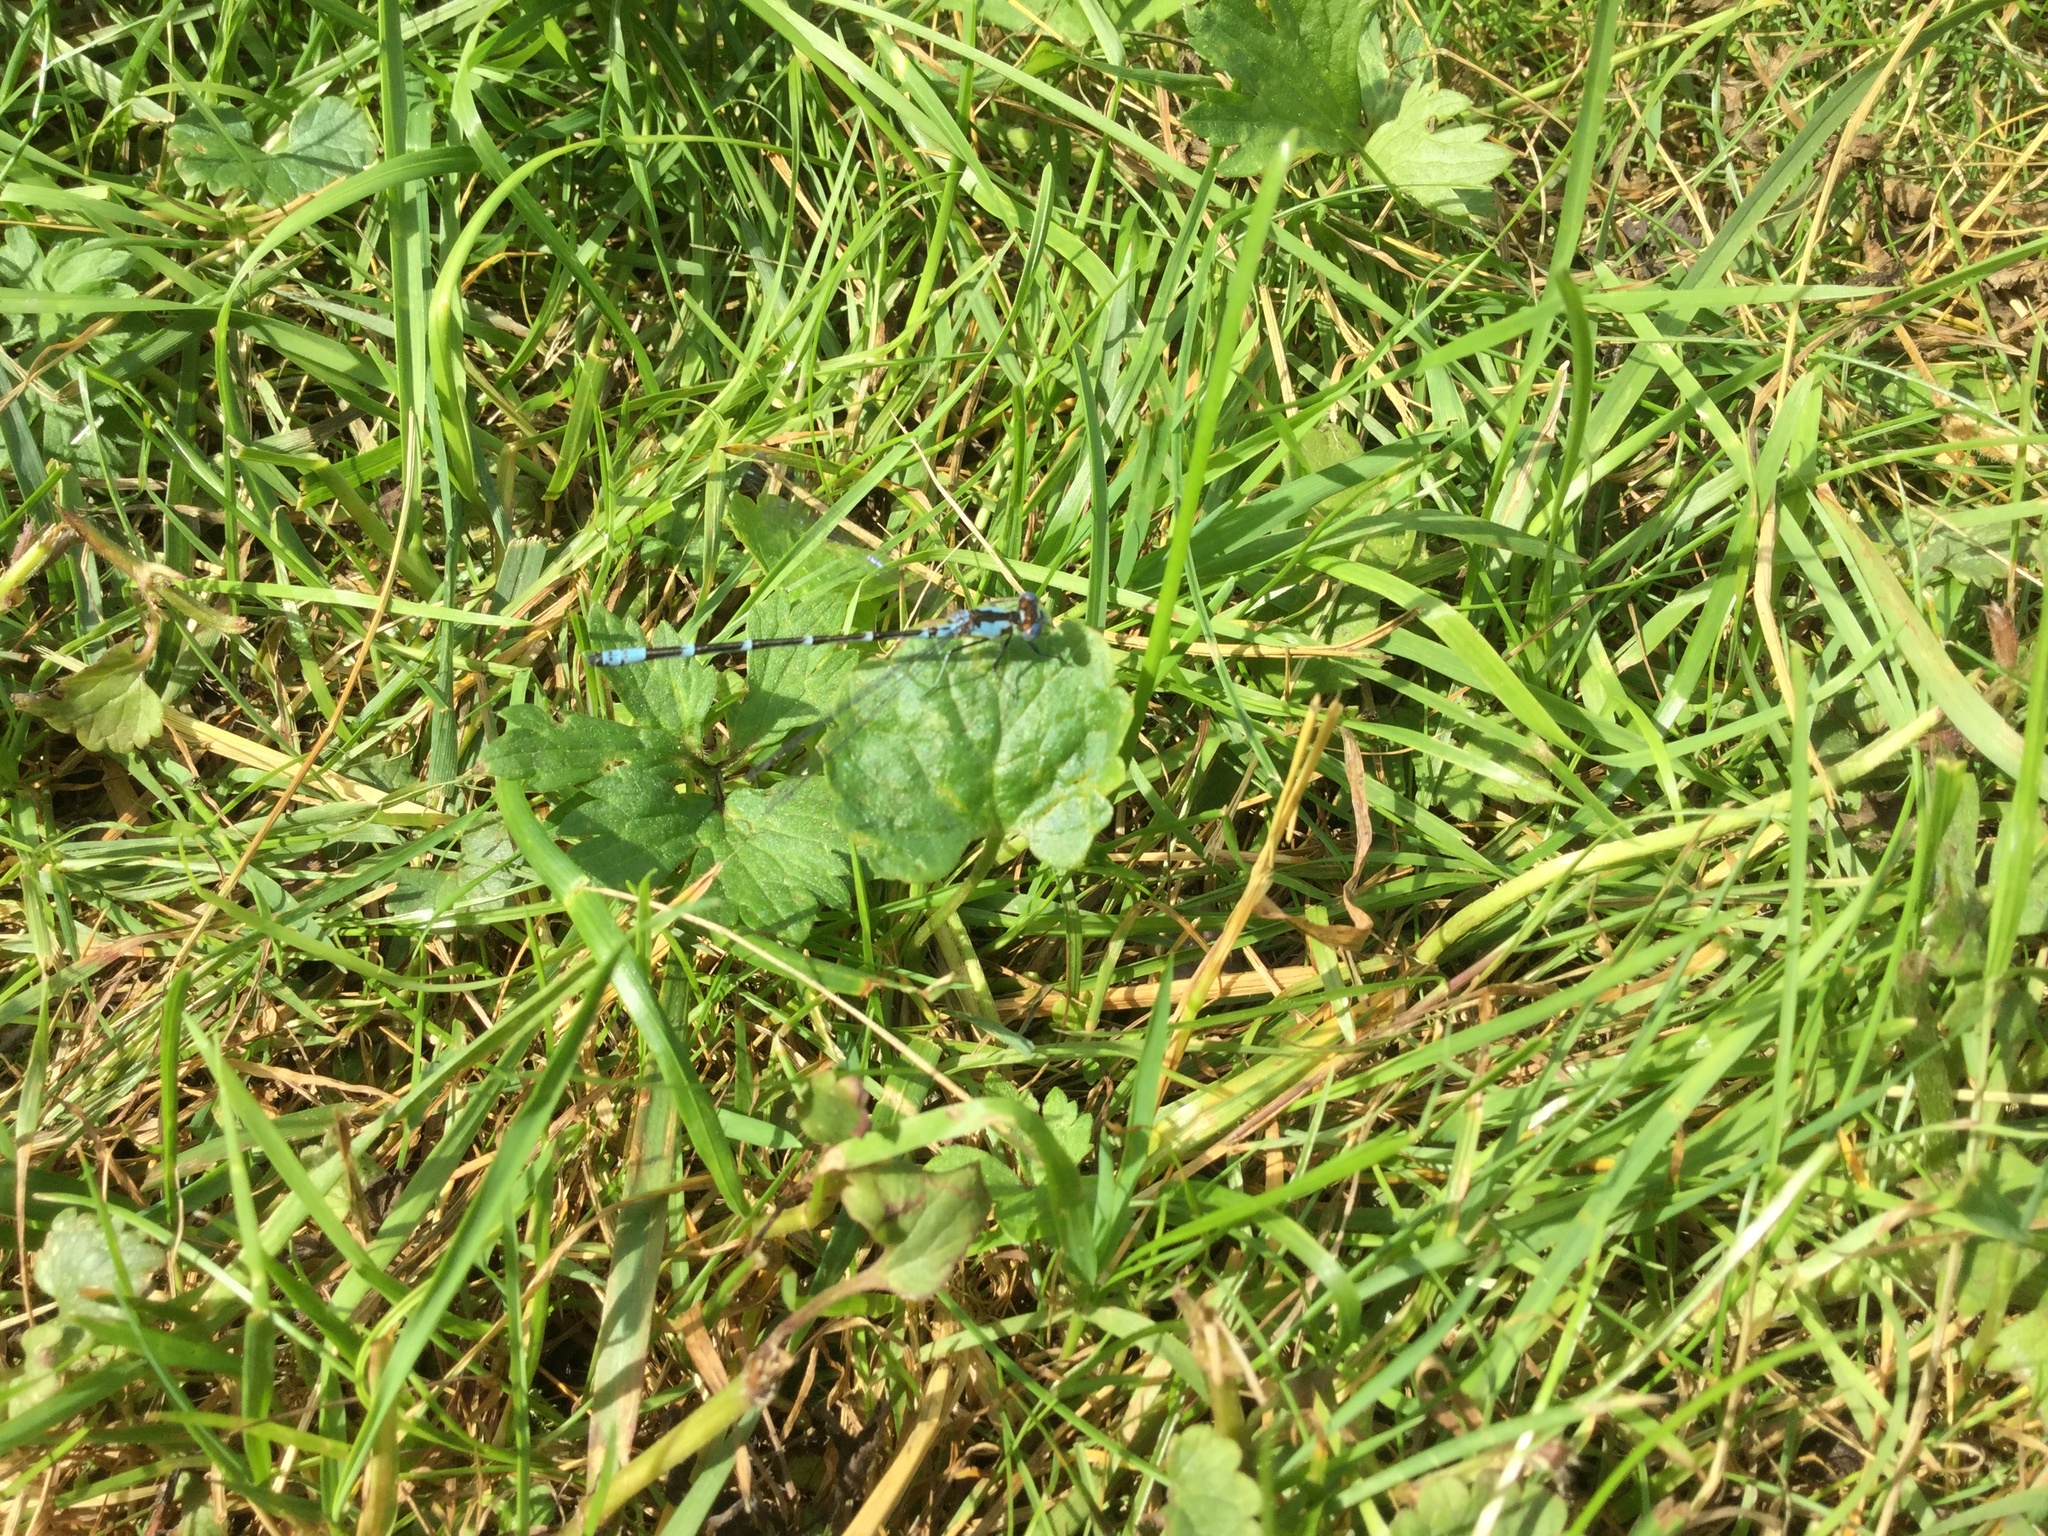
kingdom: Animalia
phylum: Arthropoda
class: Insecta
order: Odonata
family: Coenagrionidae
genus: Chromagrion
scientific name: Chromagrion conditum
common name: Aurora damsel
